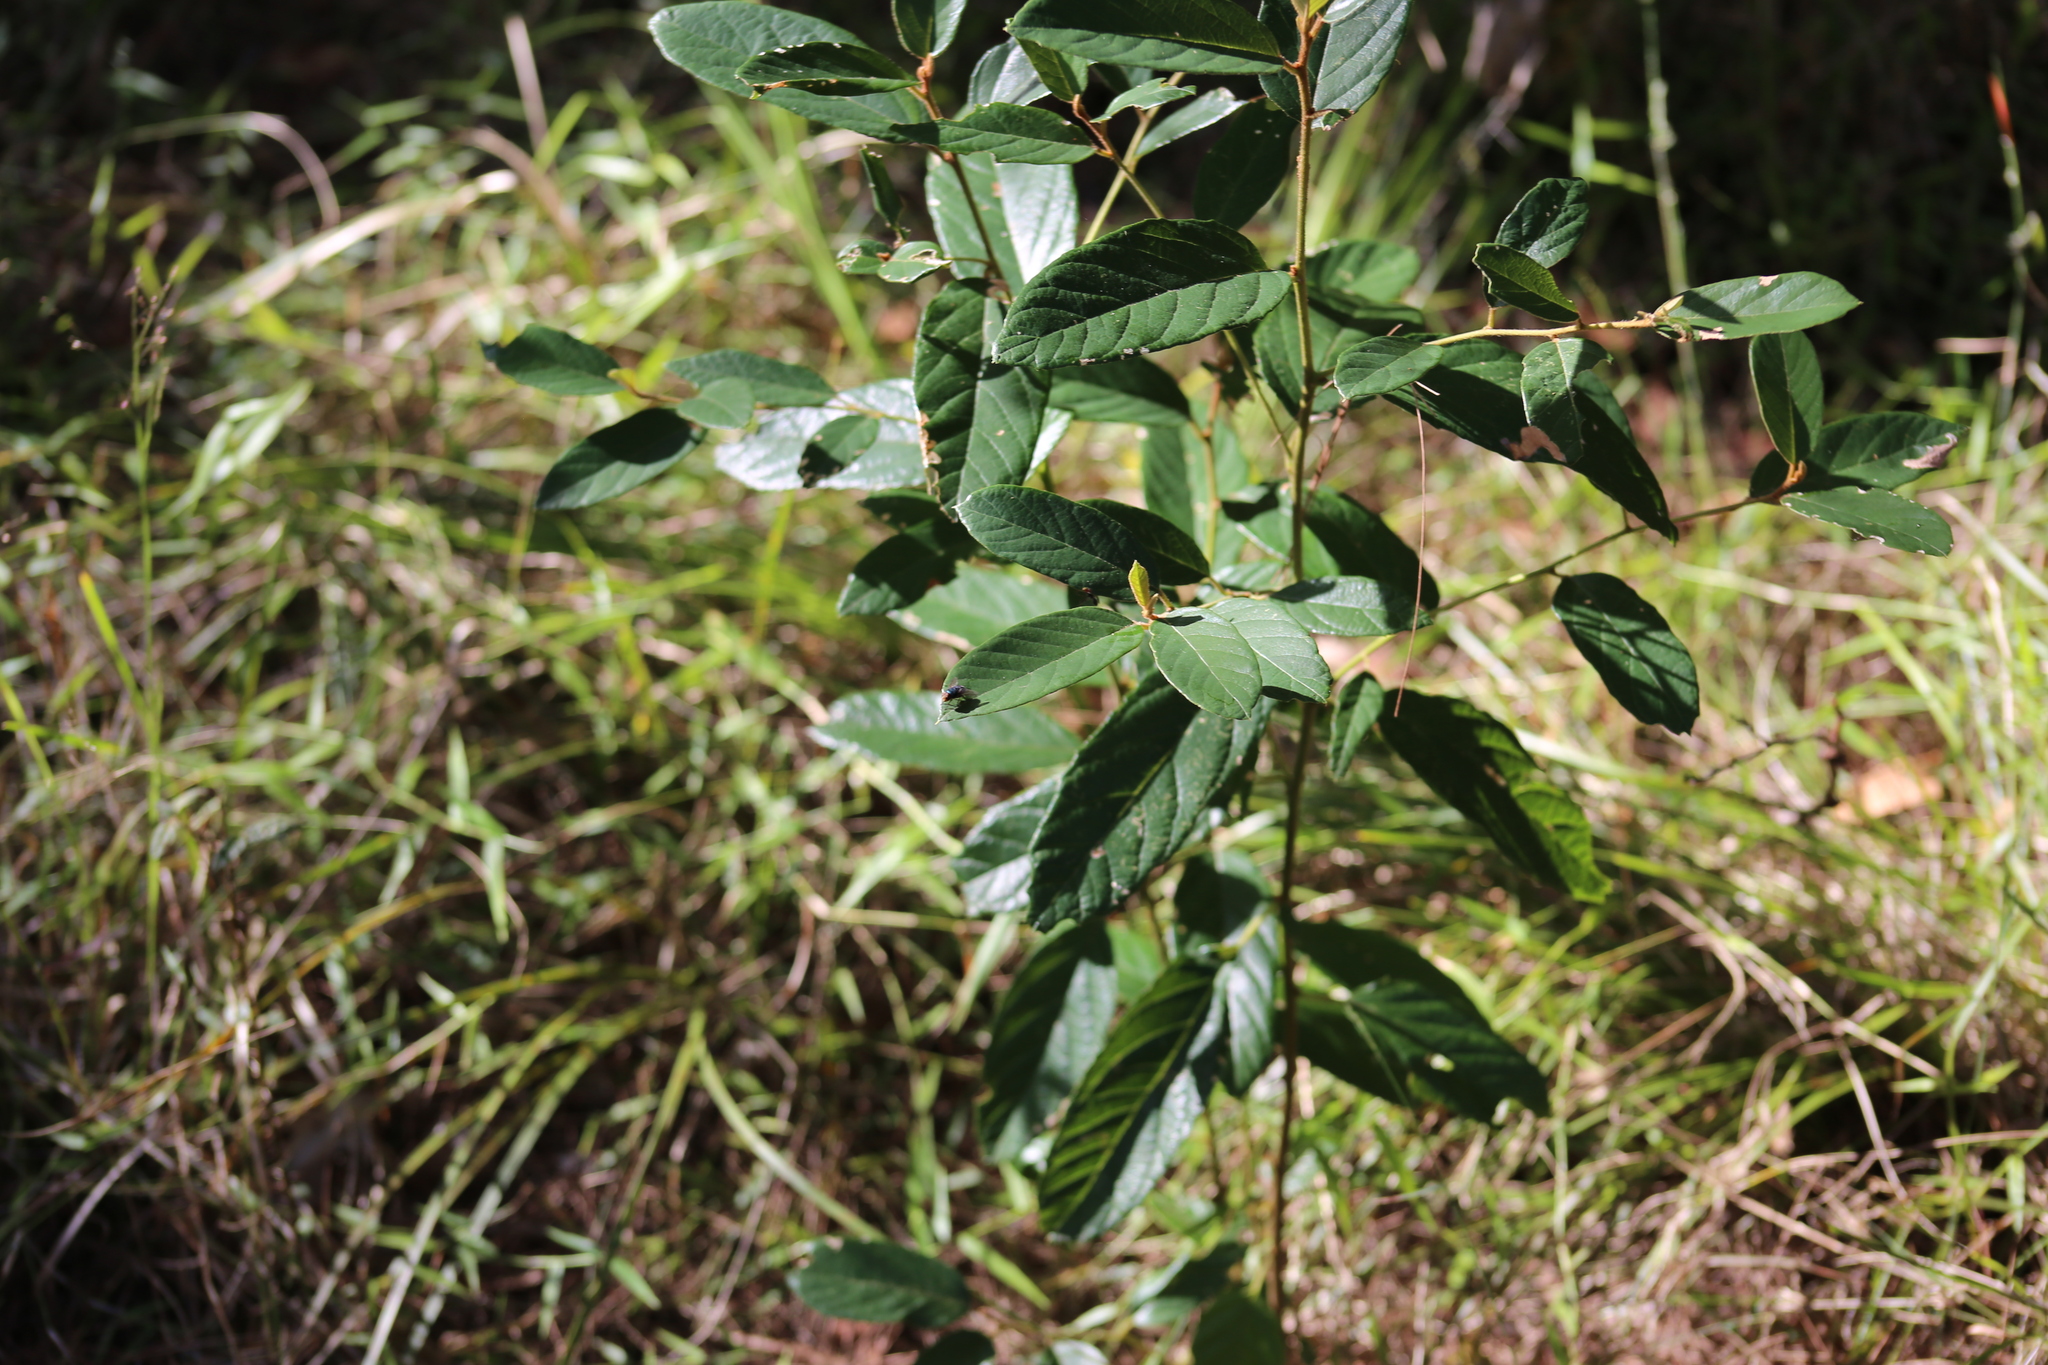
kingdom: Plantae
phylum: Tracheophyta
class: Magnoliopsida
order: Rosales
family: Rhamnaceae
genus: Alphitonia
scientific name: Alphitonia excelsa
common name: Red ash
